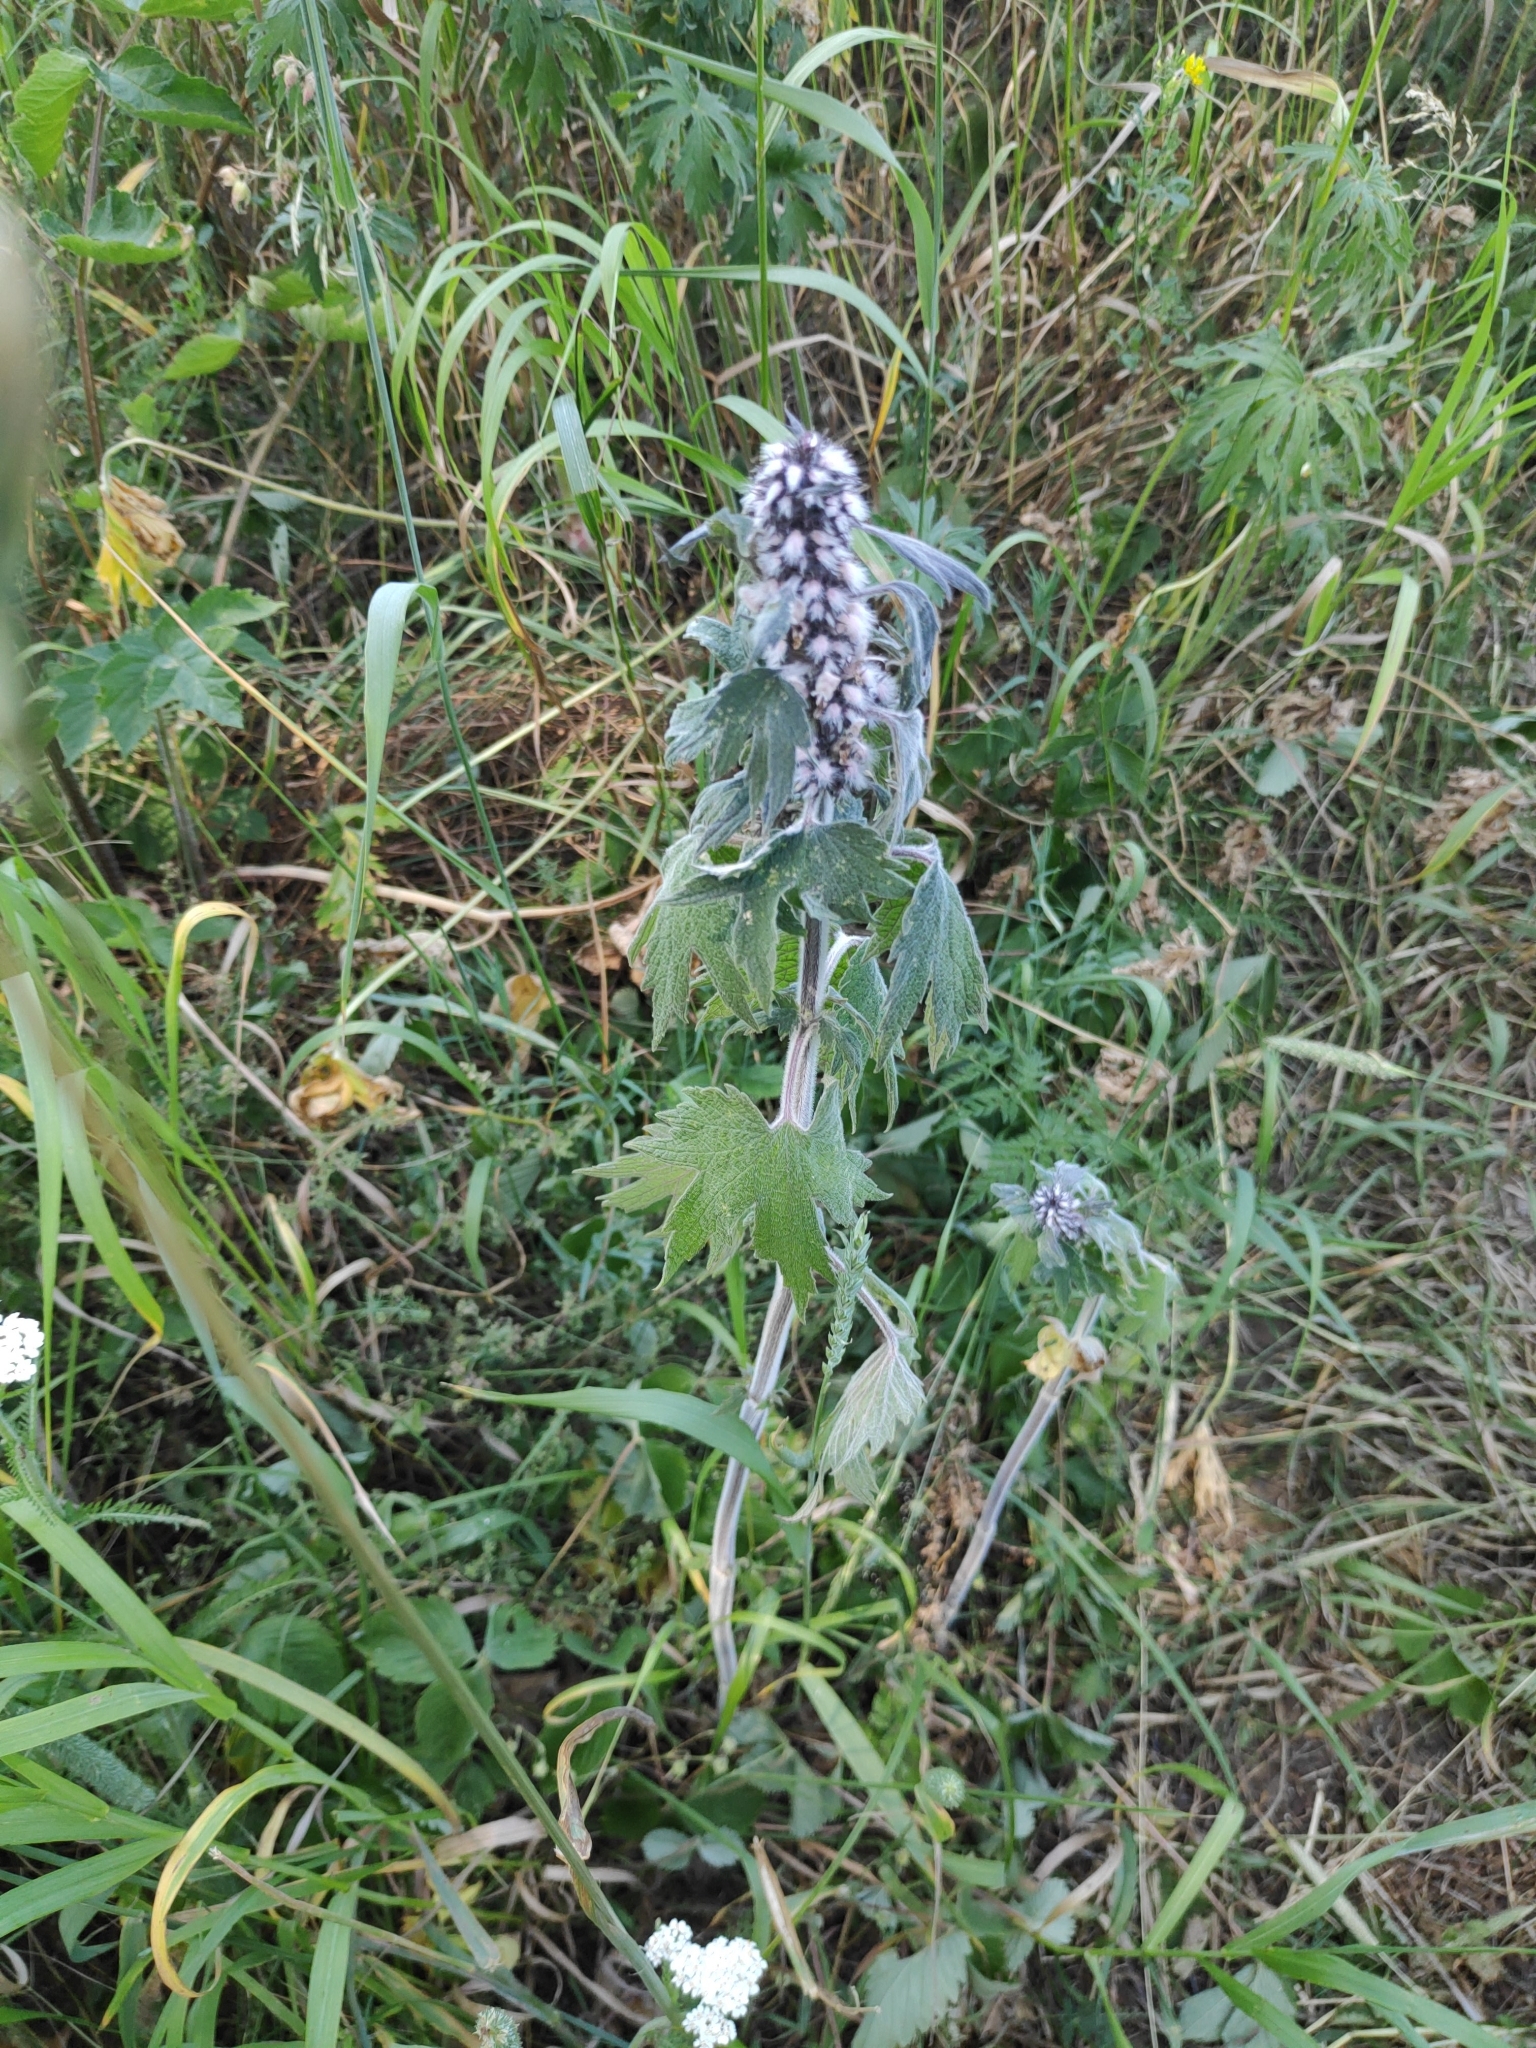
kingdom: Plantae
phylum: Tracheophyta
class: Magnoliopsida
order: Lamiales
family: Lamiaceae
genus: Leonurus
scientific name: Leonurus quinquelobatus
